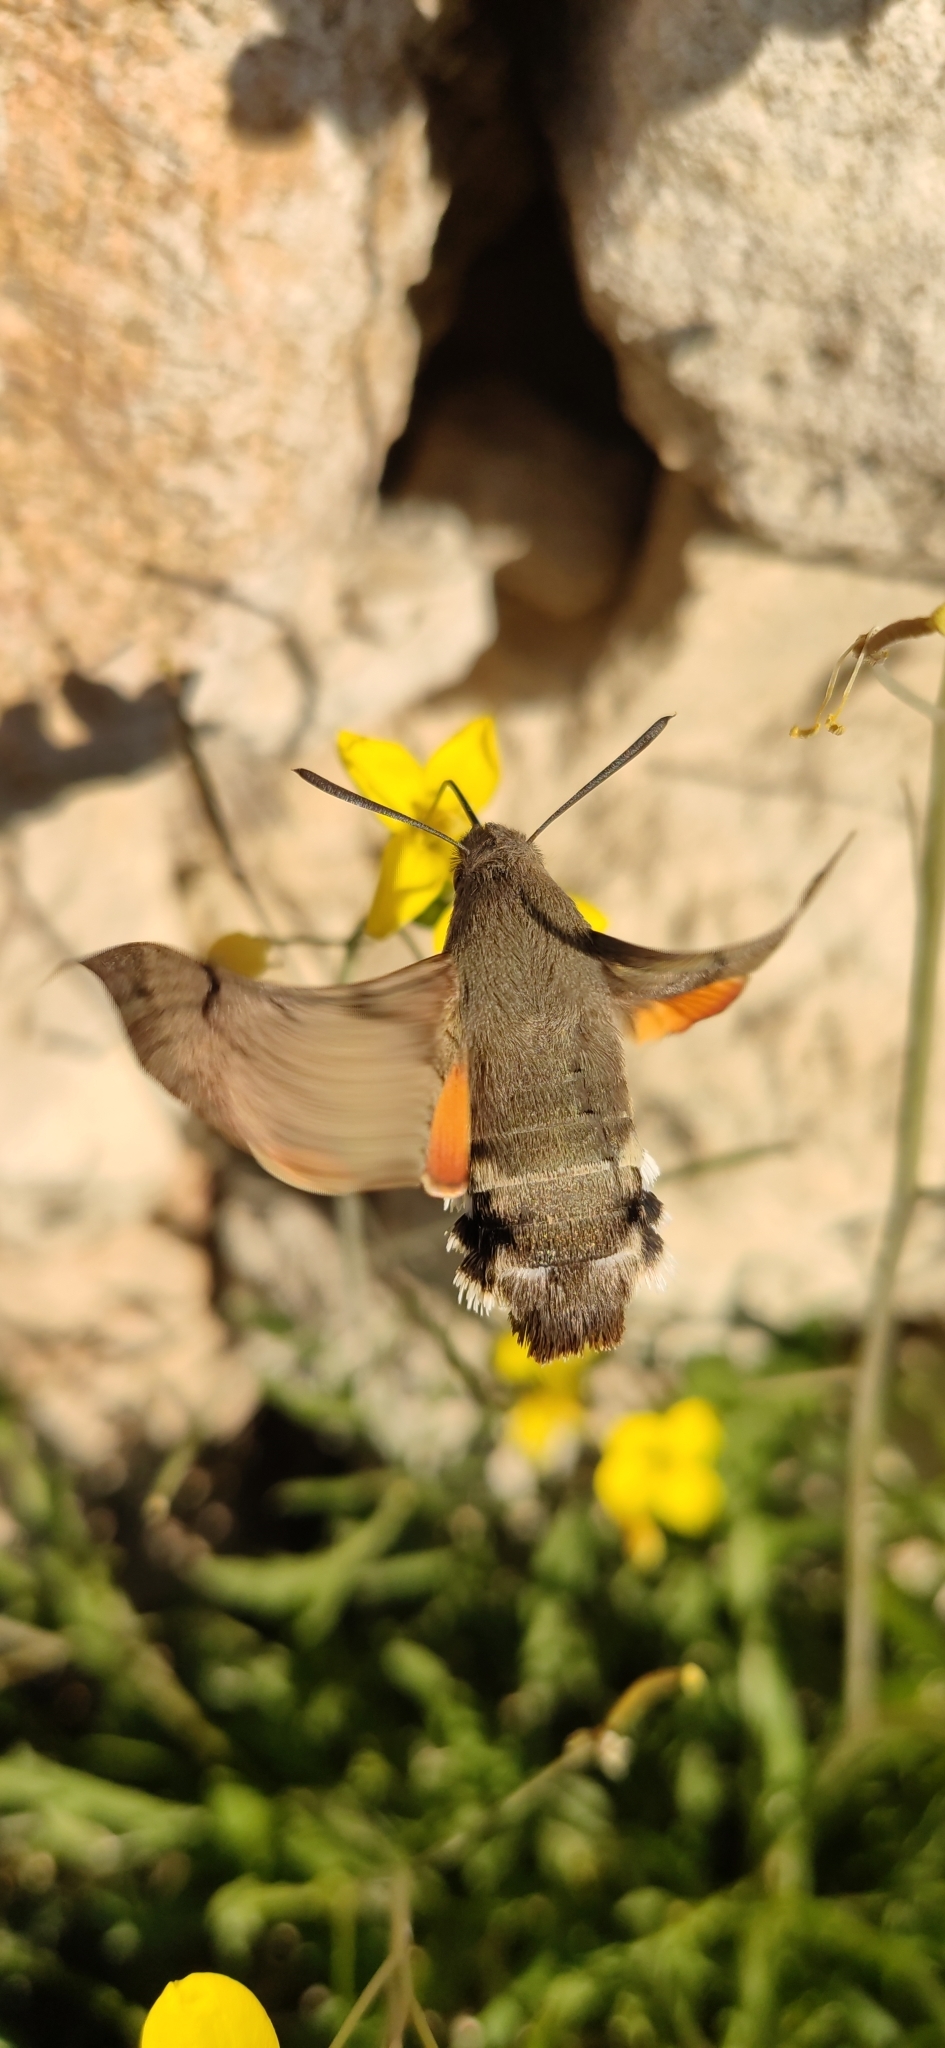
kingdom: Animalia
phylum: Arthropoda
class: Insecta
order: Lepidoptera
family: Sphingidae
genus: Macroglossum
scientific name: Macroglossum stellatarum
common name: Humming-bird hawk-moth
